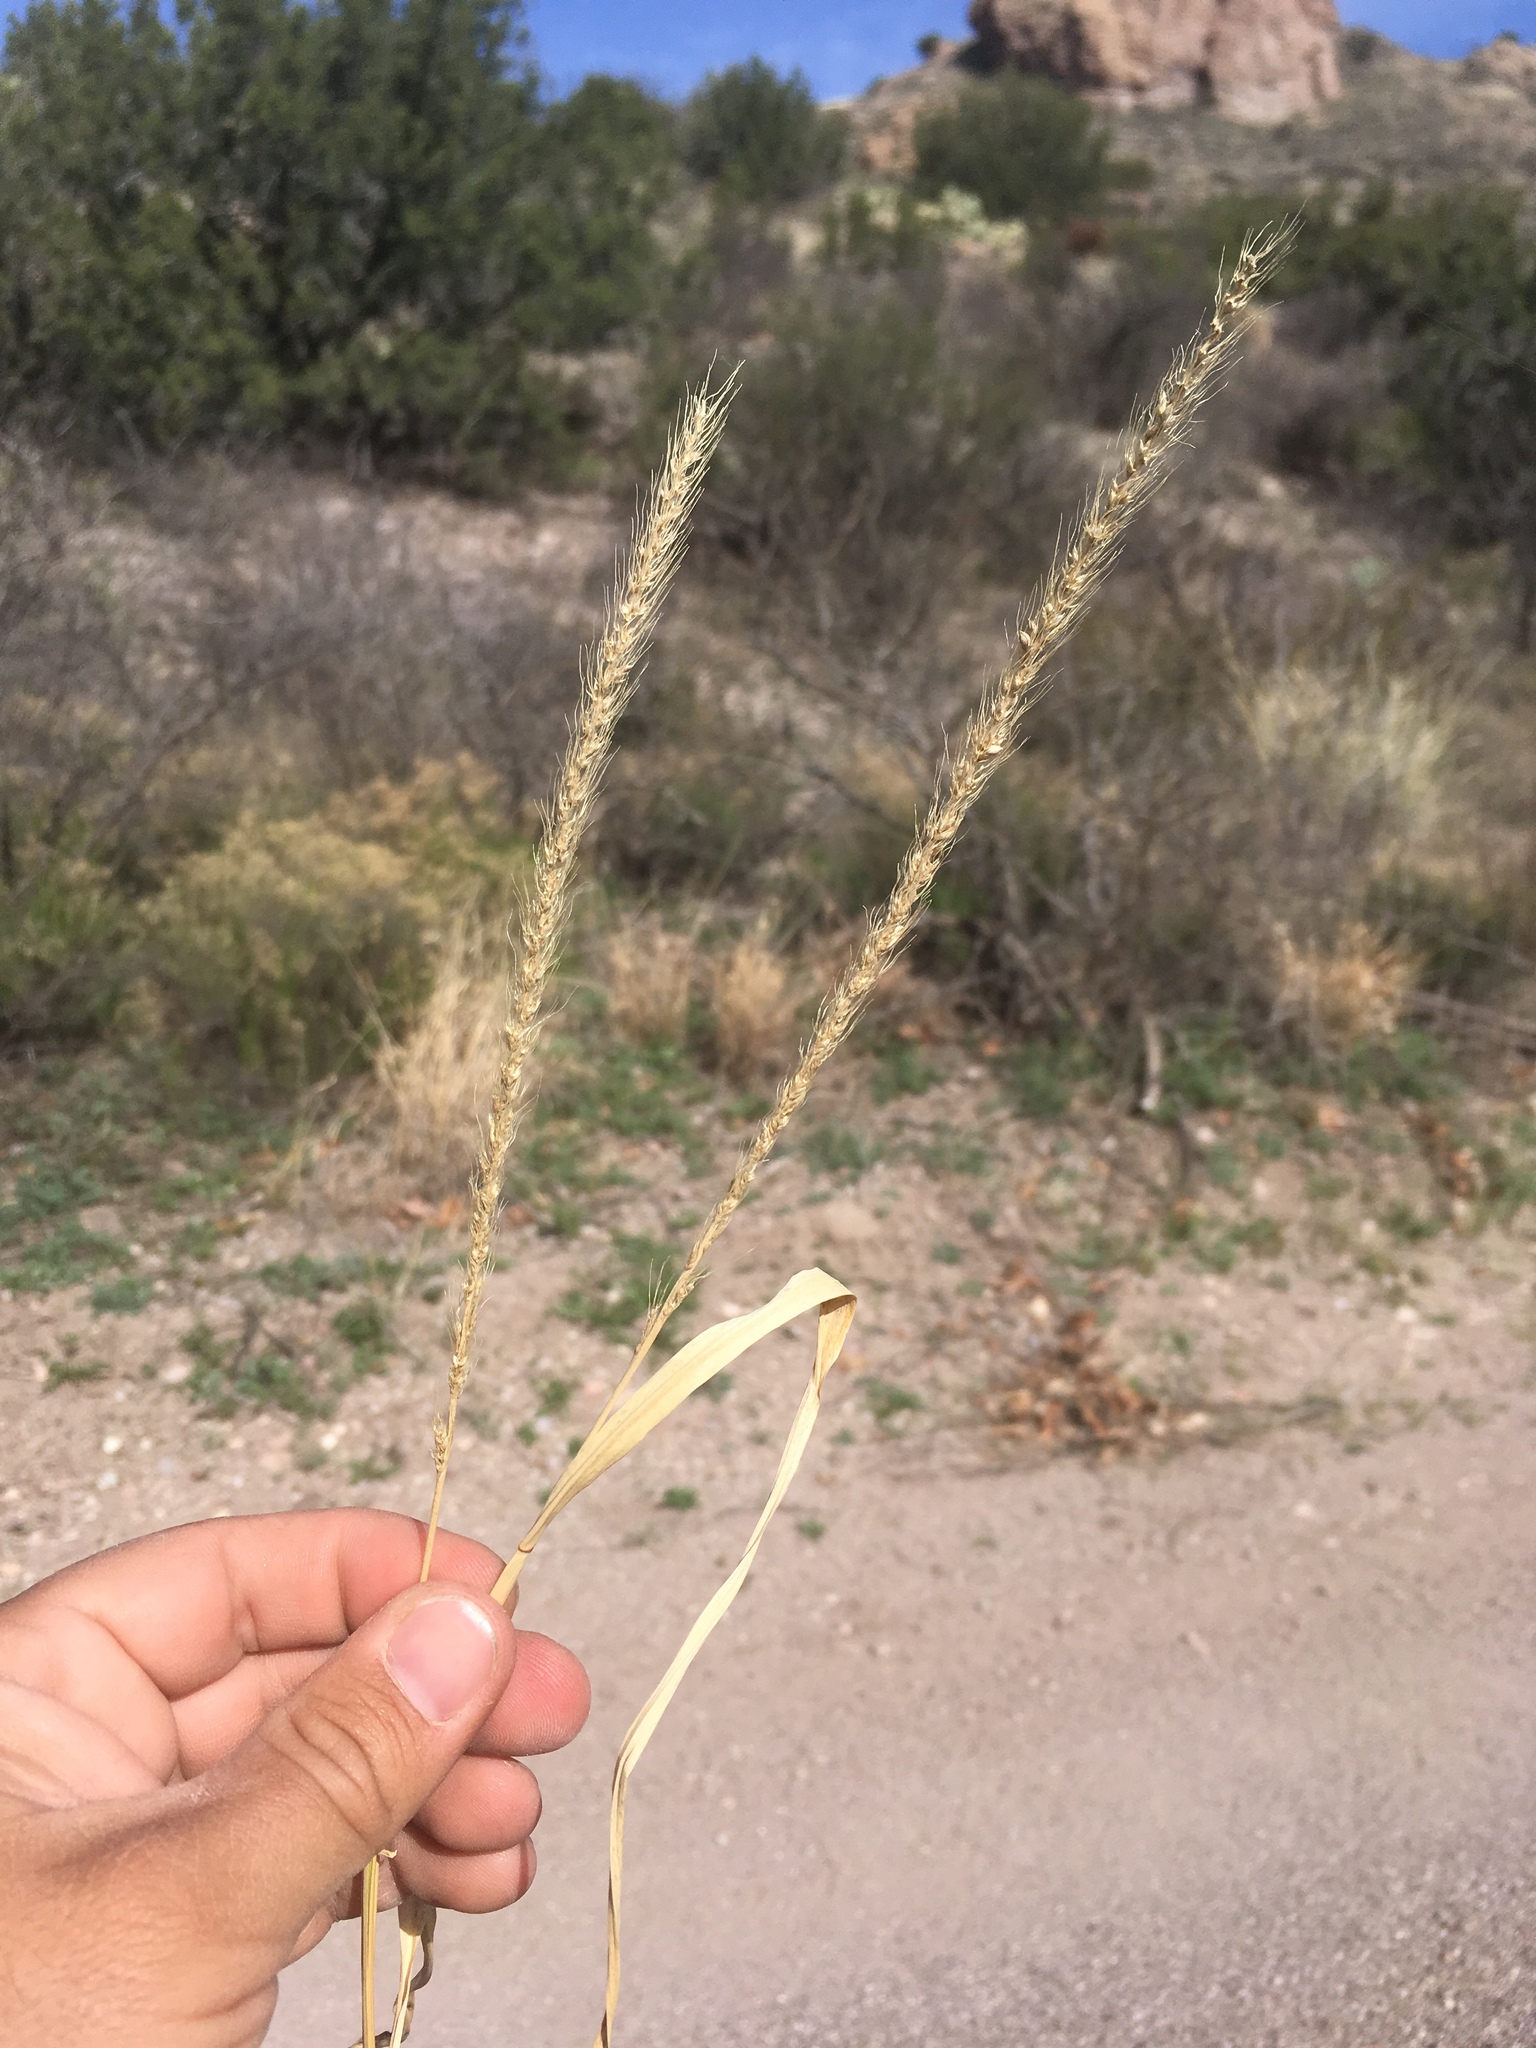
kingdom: Plantae
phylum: Tracheophyta
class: Liliopsida
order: Poales
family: Poaceae
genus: Setaria
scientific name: Setaria leucopila
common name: Plains bristle grass
